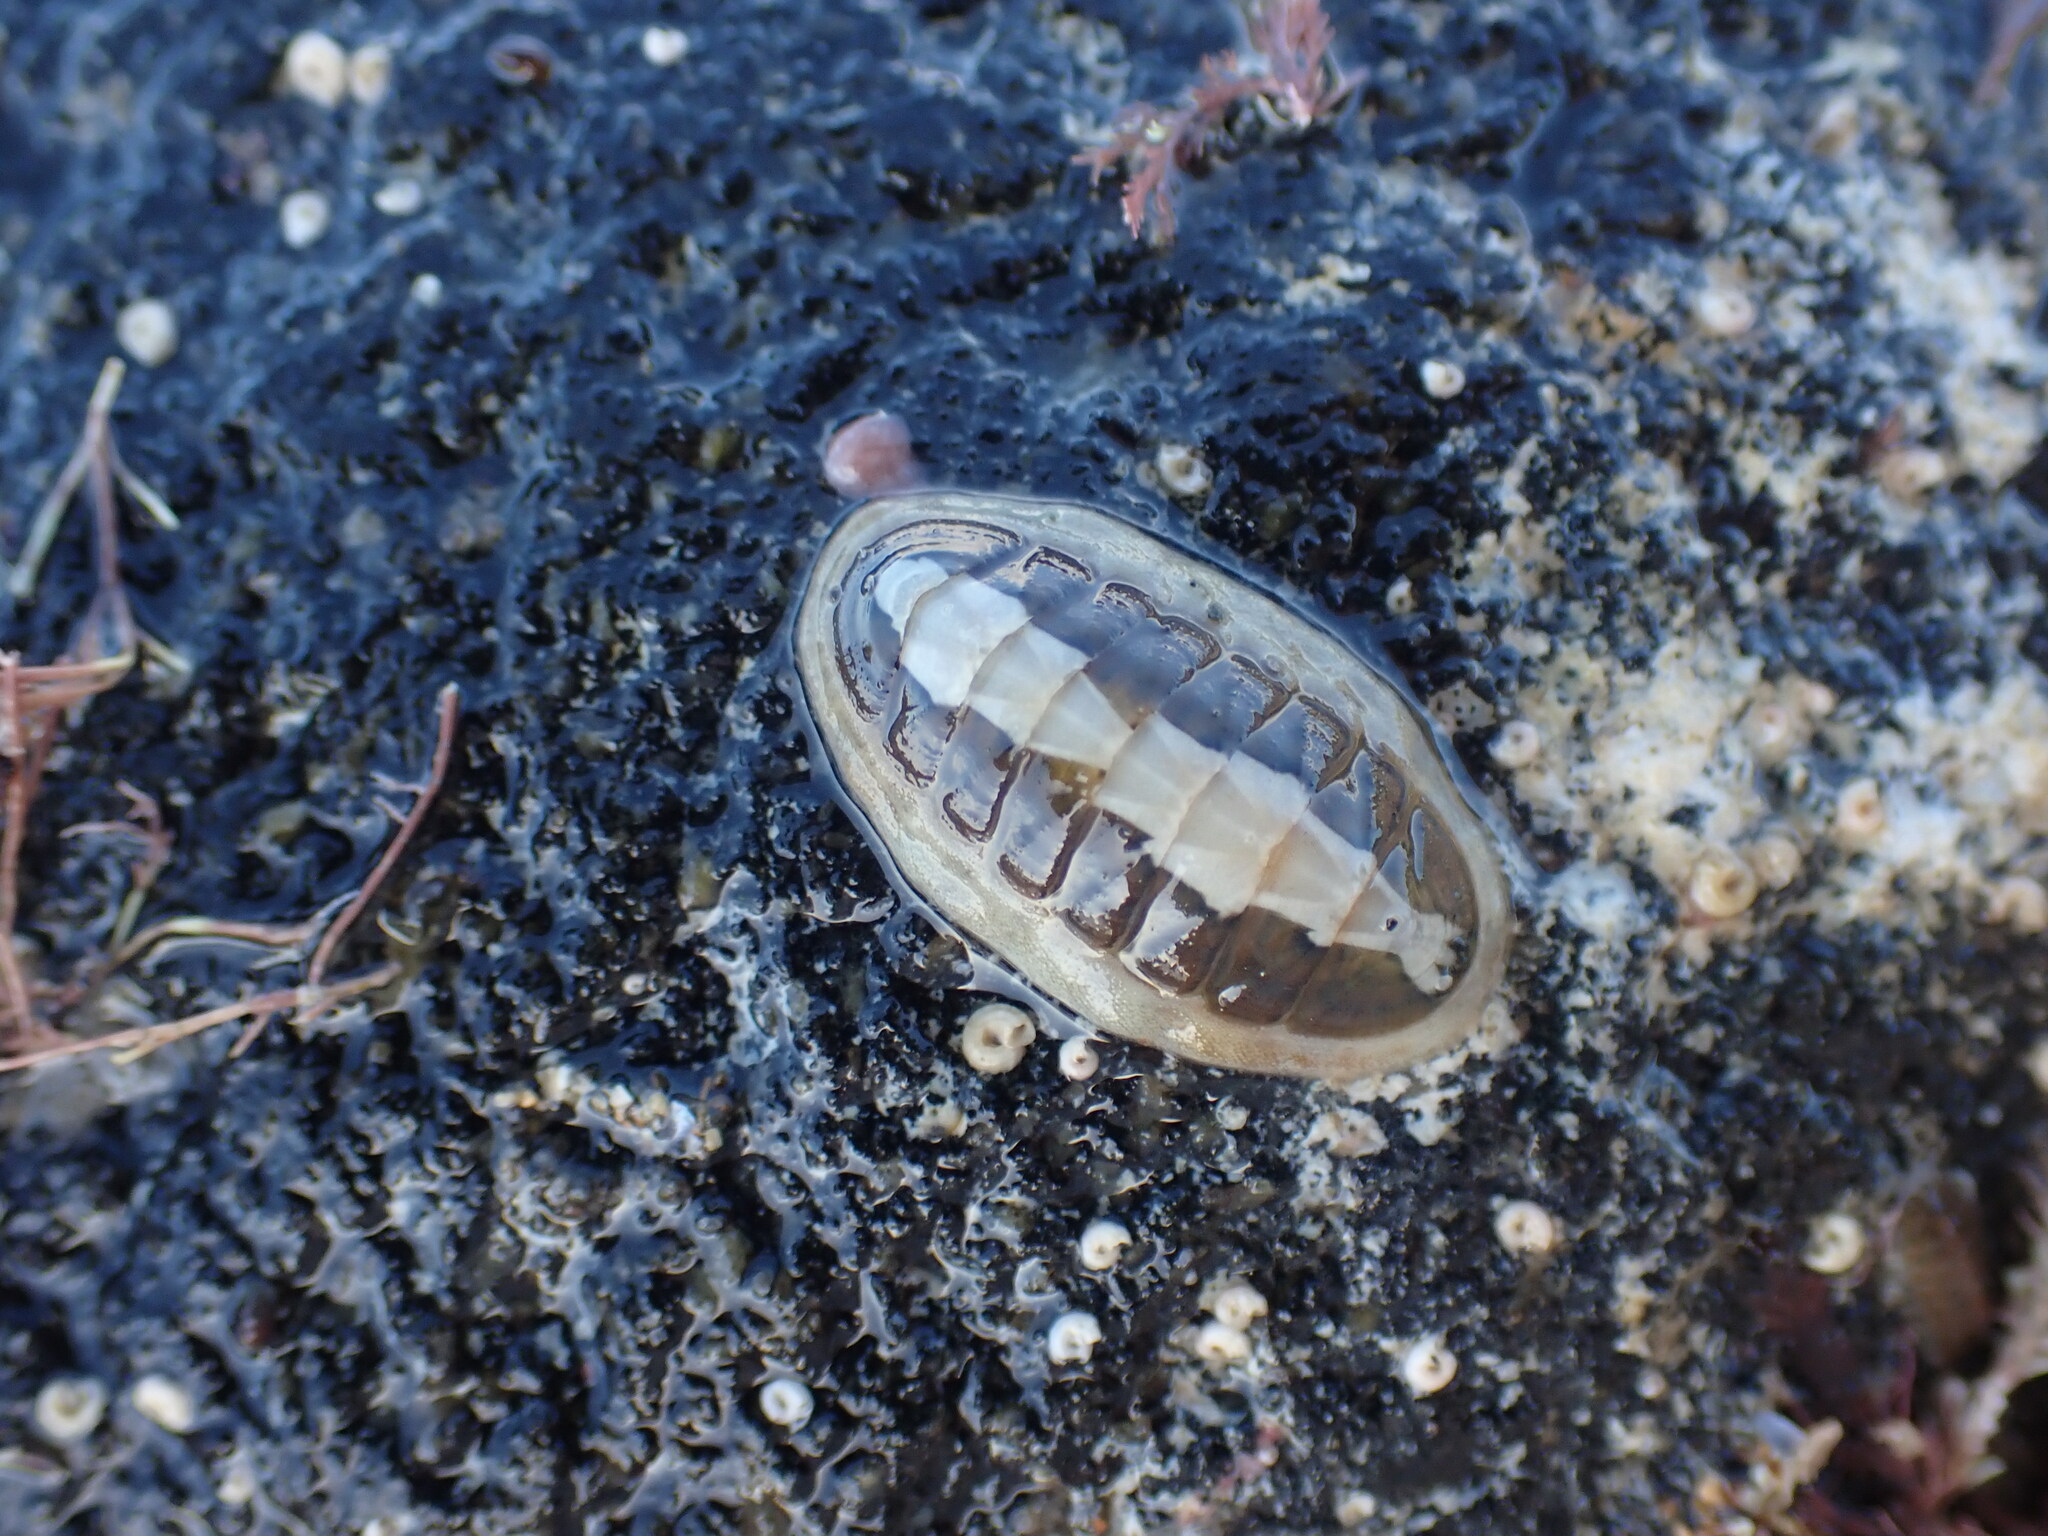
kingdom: Animalia
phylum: Mollusca
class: Polyplacophora
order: Chitonida
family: Ischnochitonidae
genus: Ischnochiton
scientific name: Ischnochiton maorianus
